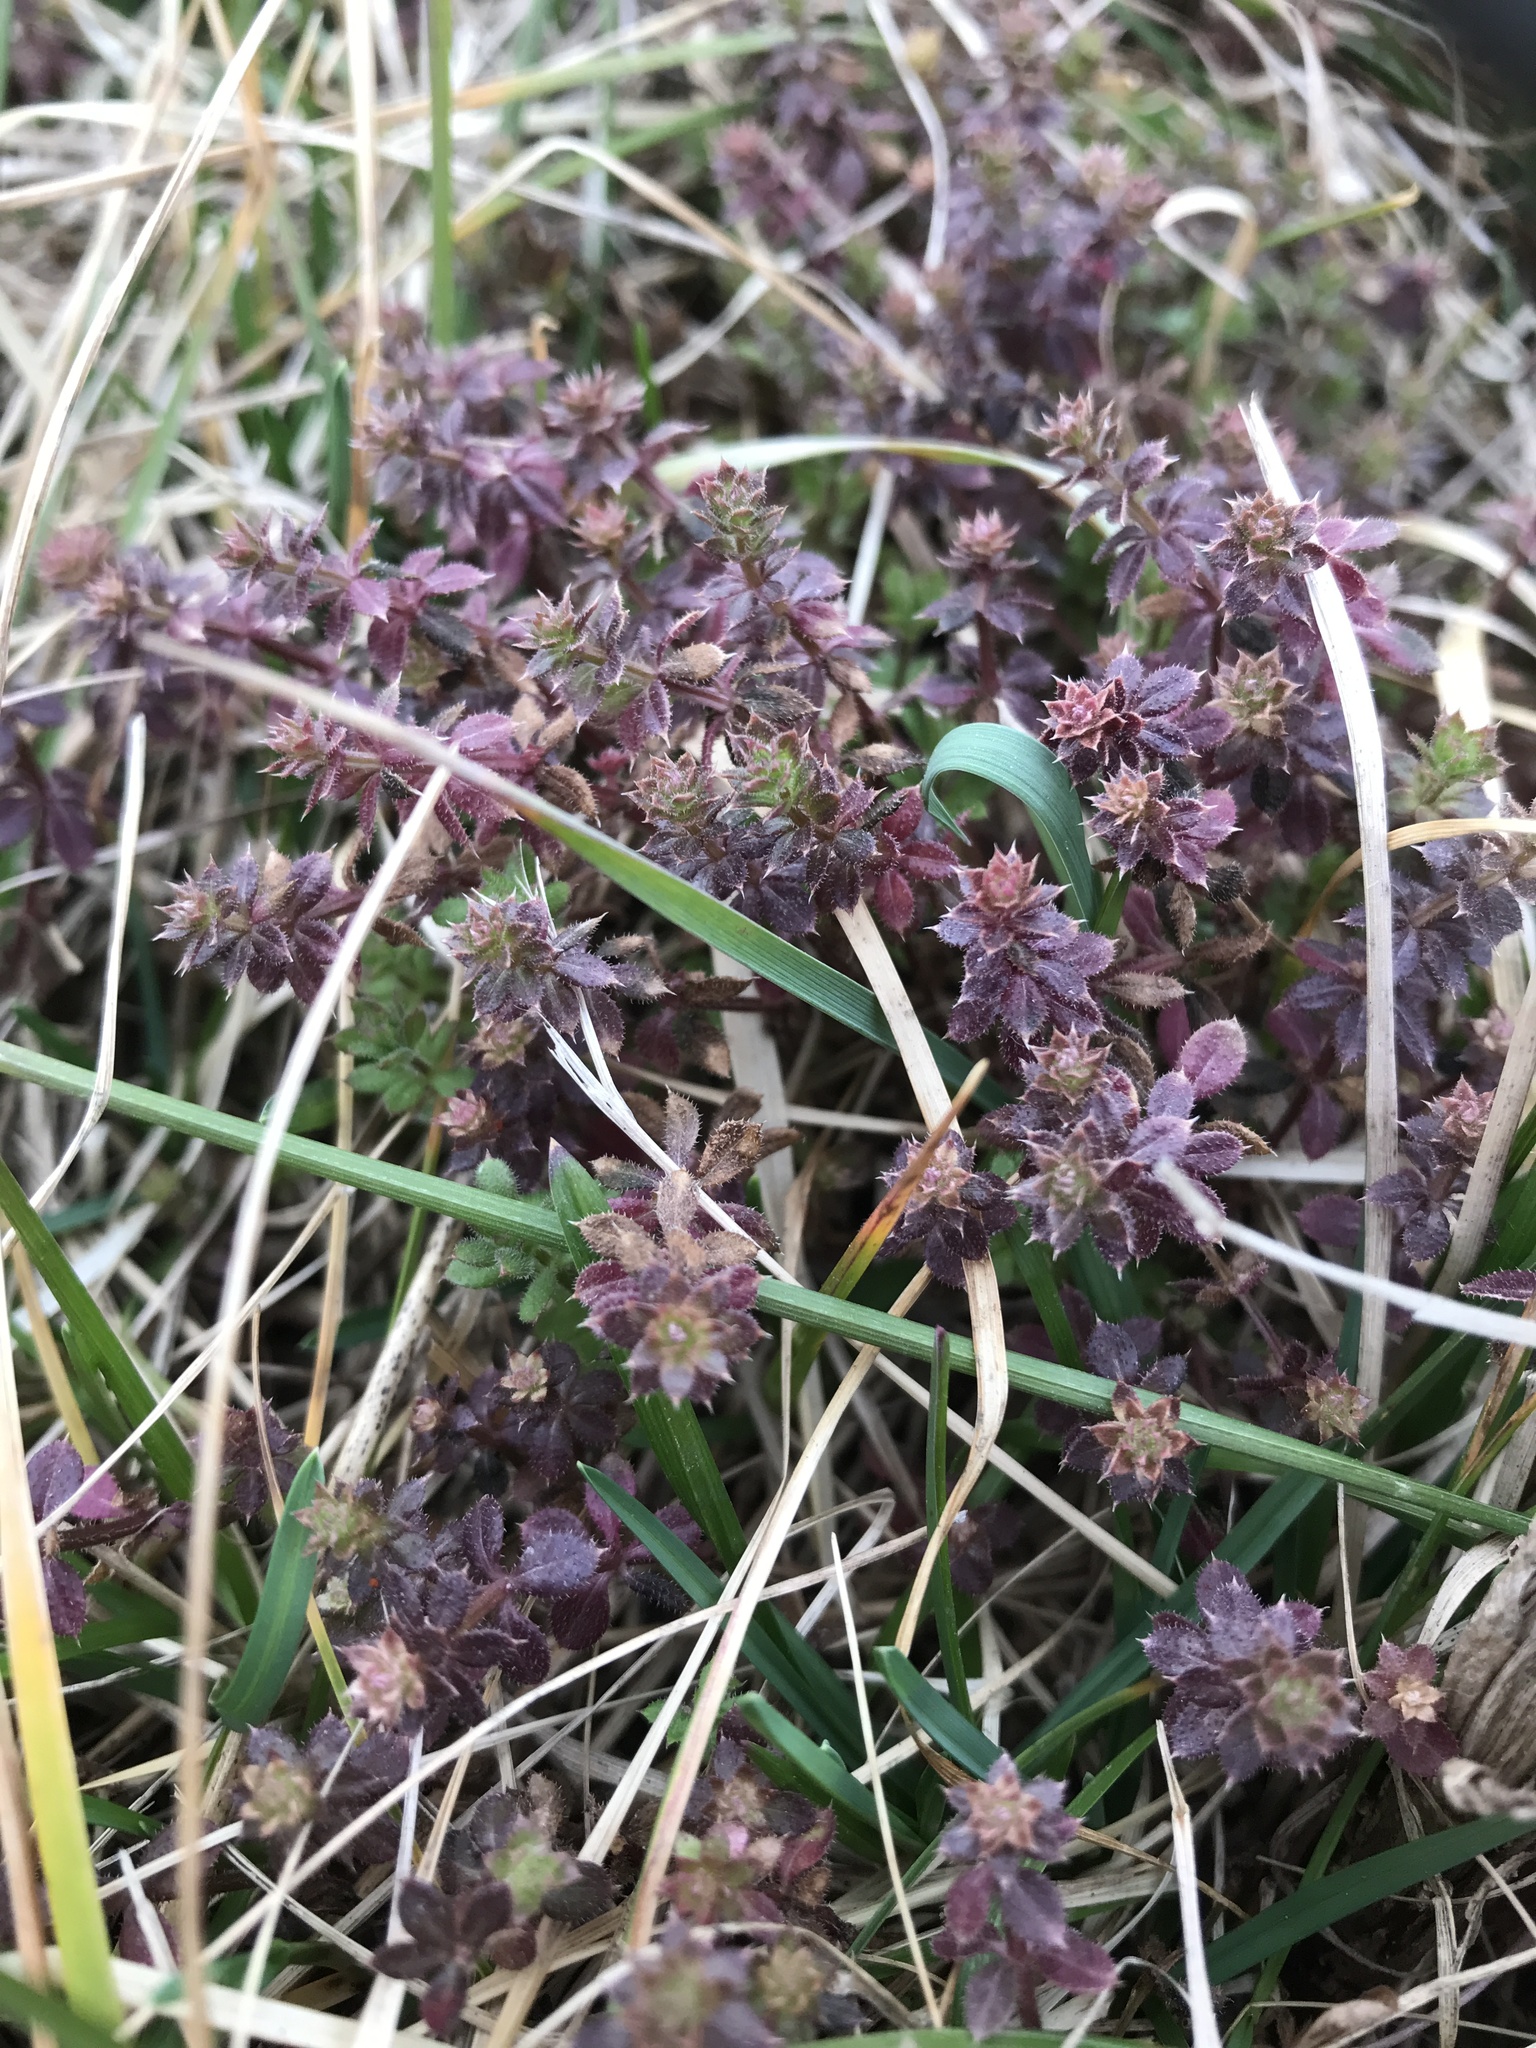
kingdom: Plantae
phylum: Tracheophyta
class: Magnoliopsida
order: Gentianales
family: Rubiaceae
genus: Galium
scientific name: Galium aparine
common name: Cleavers
